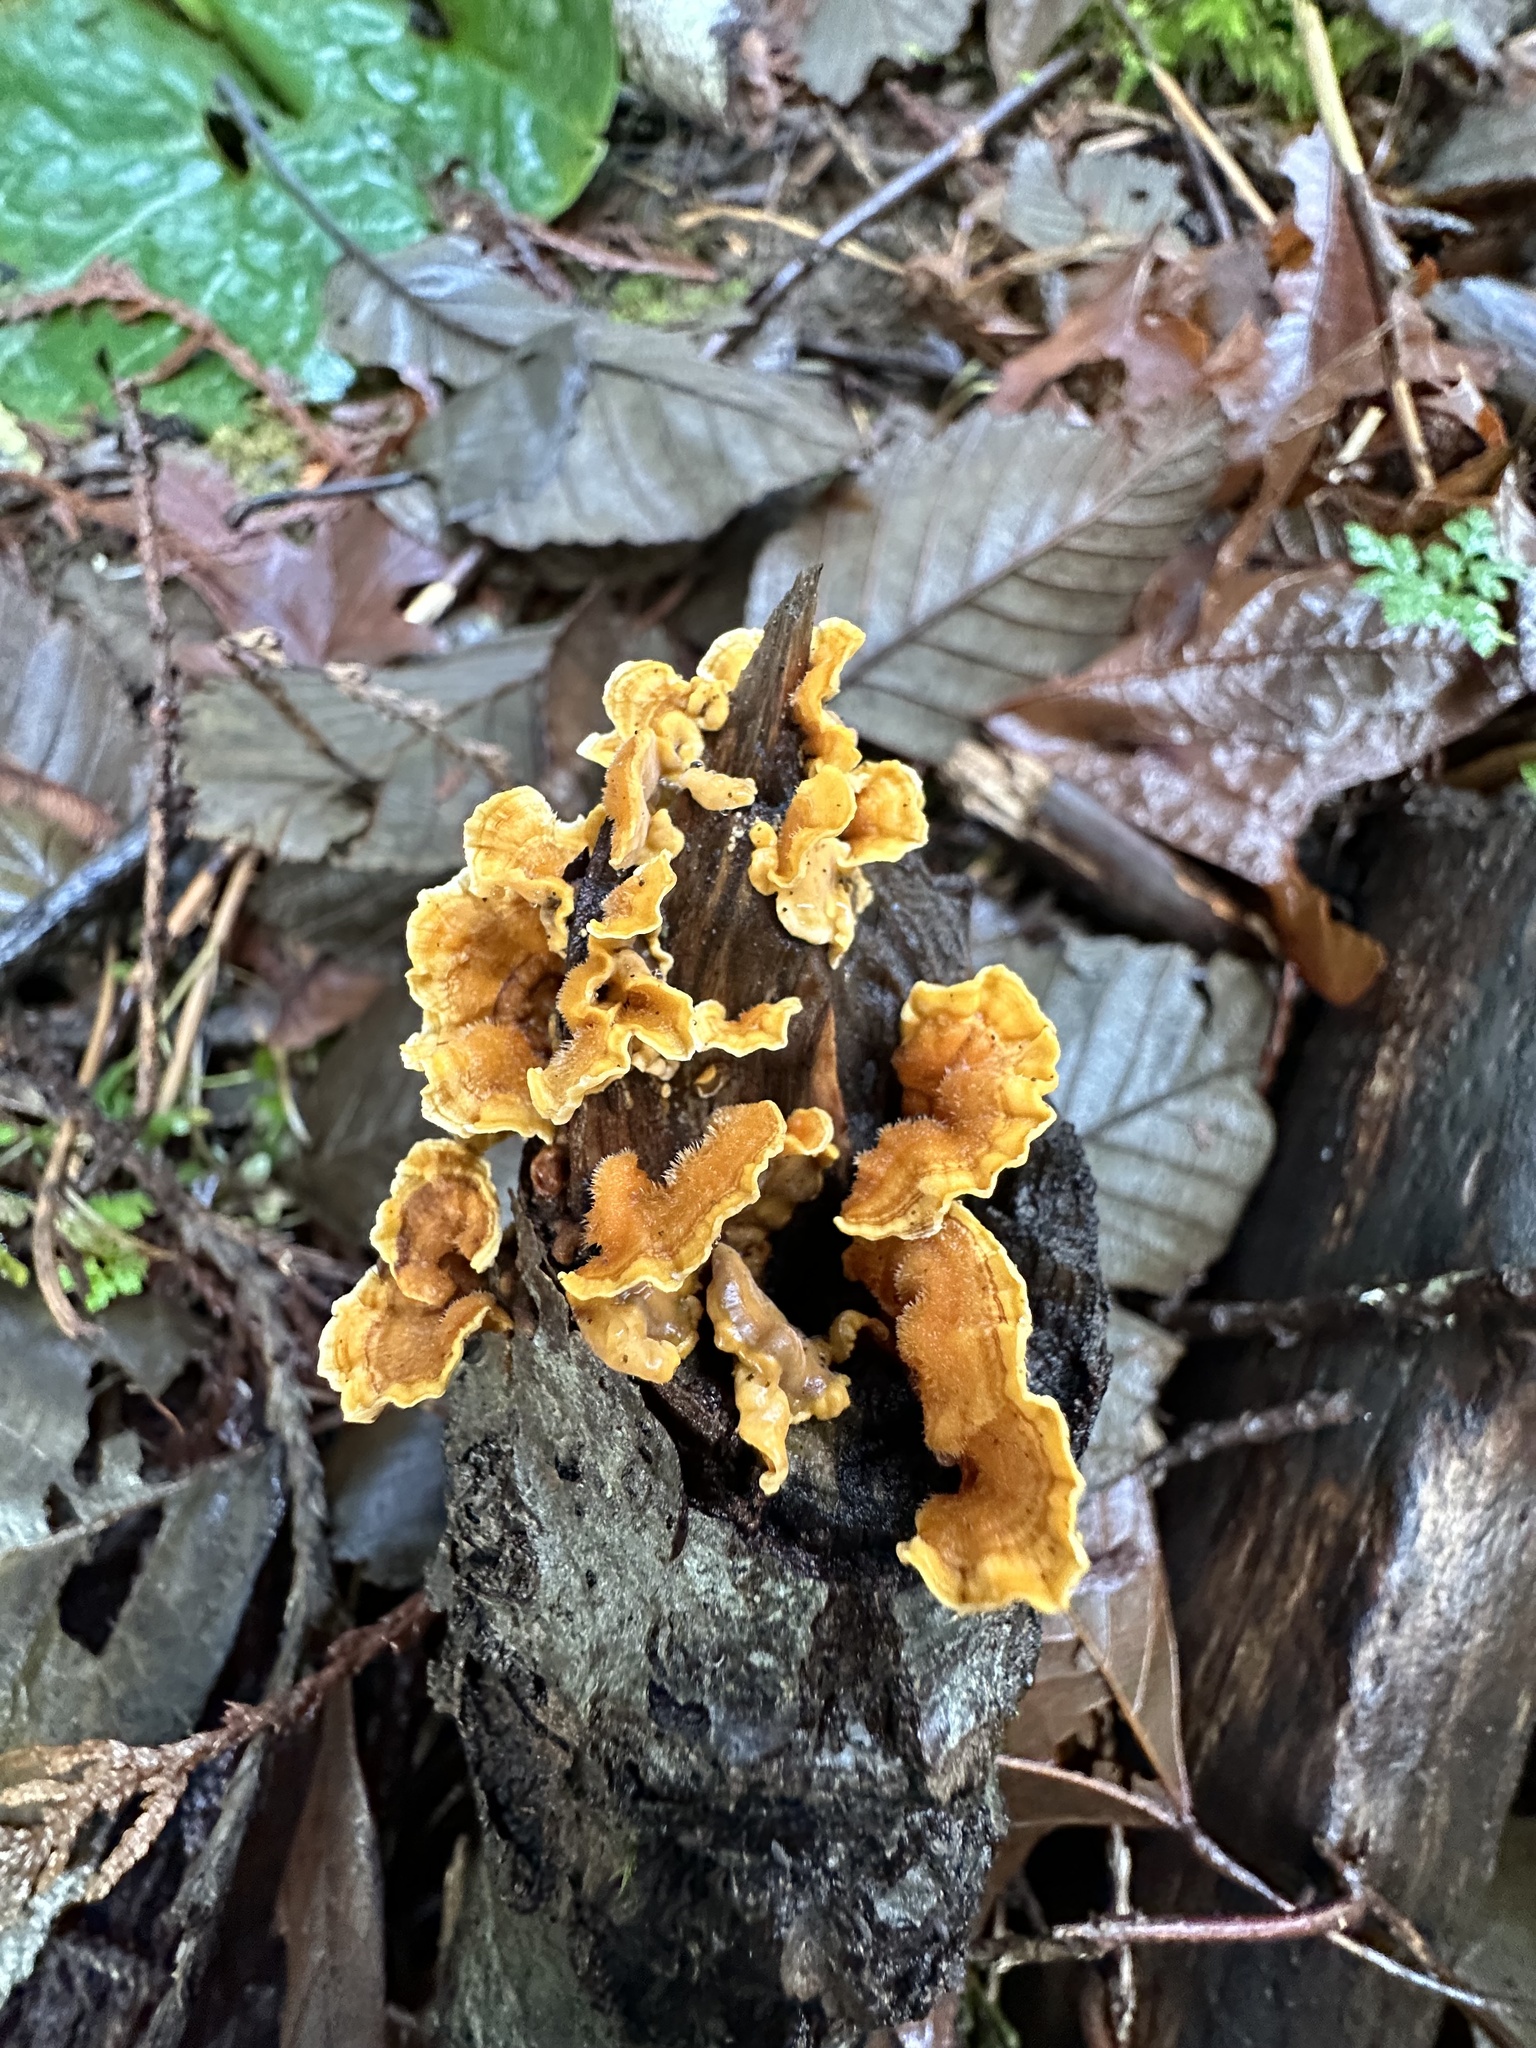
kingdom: Fungi
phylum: Basidiomycota
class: Agaricomycetes
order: Russulales
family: Stereaceae
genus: Stereum
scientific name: Stereum hirsutum
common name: Hairy curtain crust
